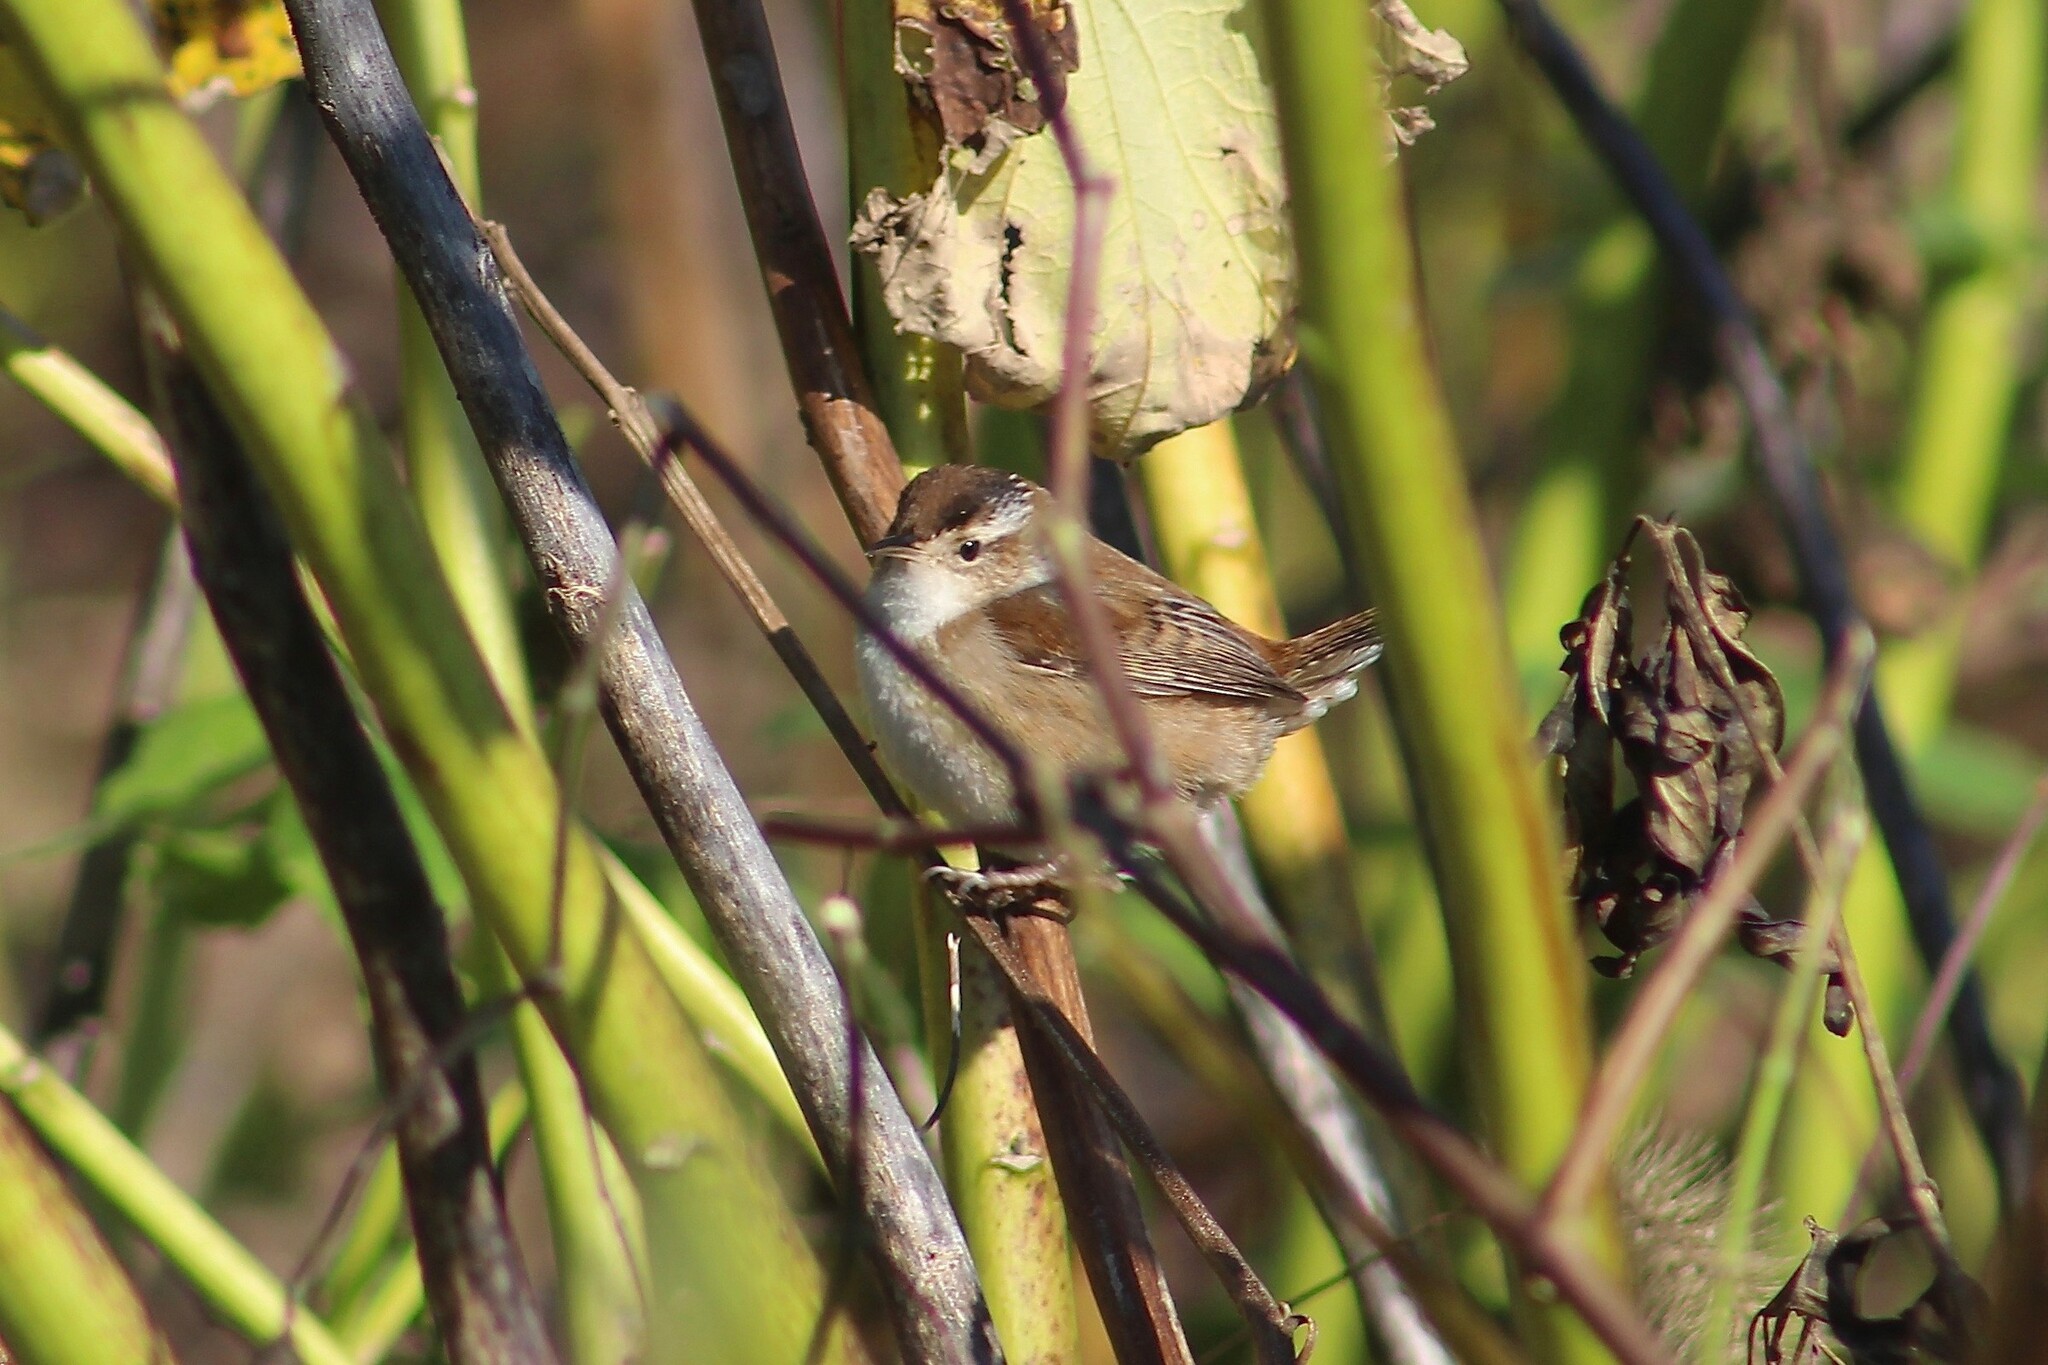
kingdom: Animalia
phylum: Chordata
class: Aves
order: Passeriformes
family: Troglodytidae
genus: Cistothorus
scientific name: Cistothorus palustris
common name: Marsh wren
